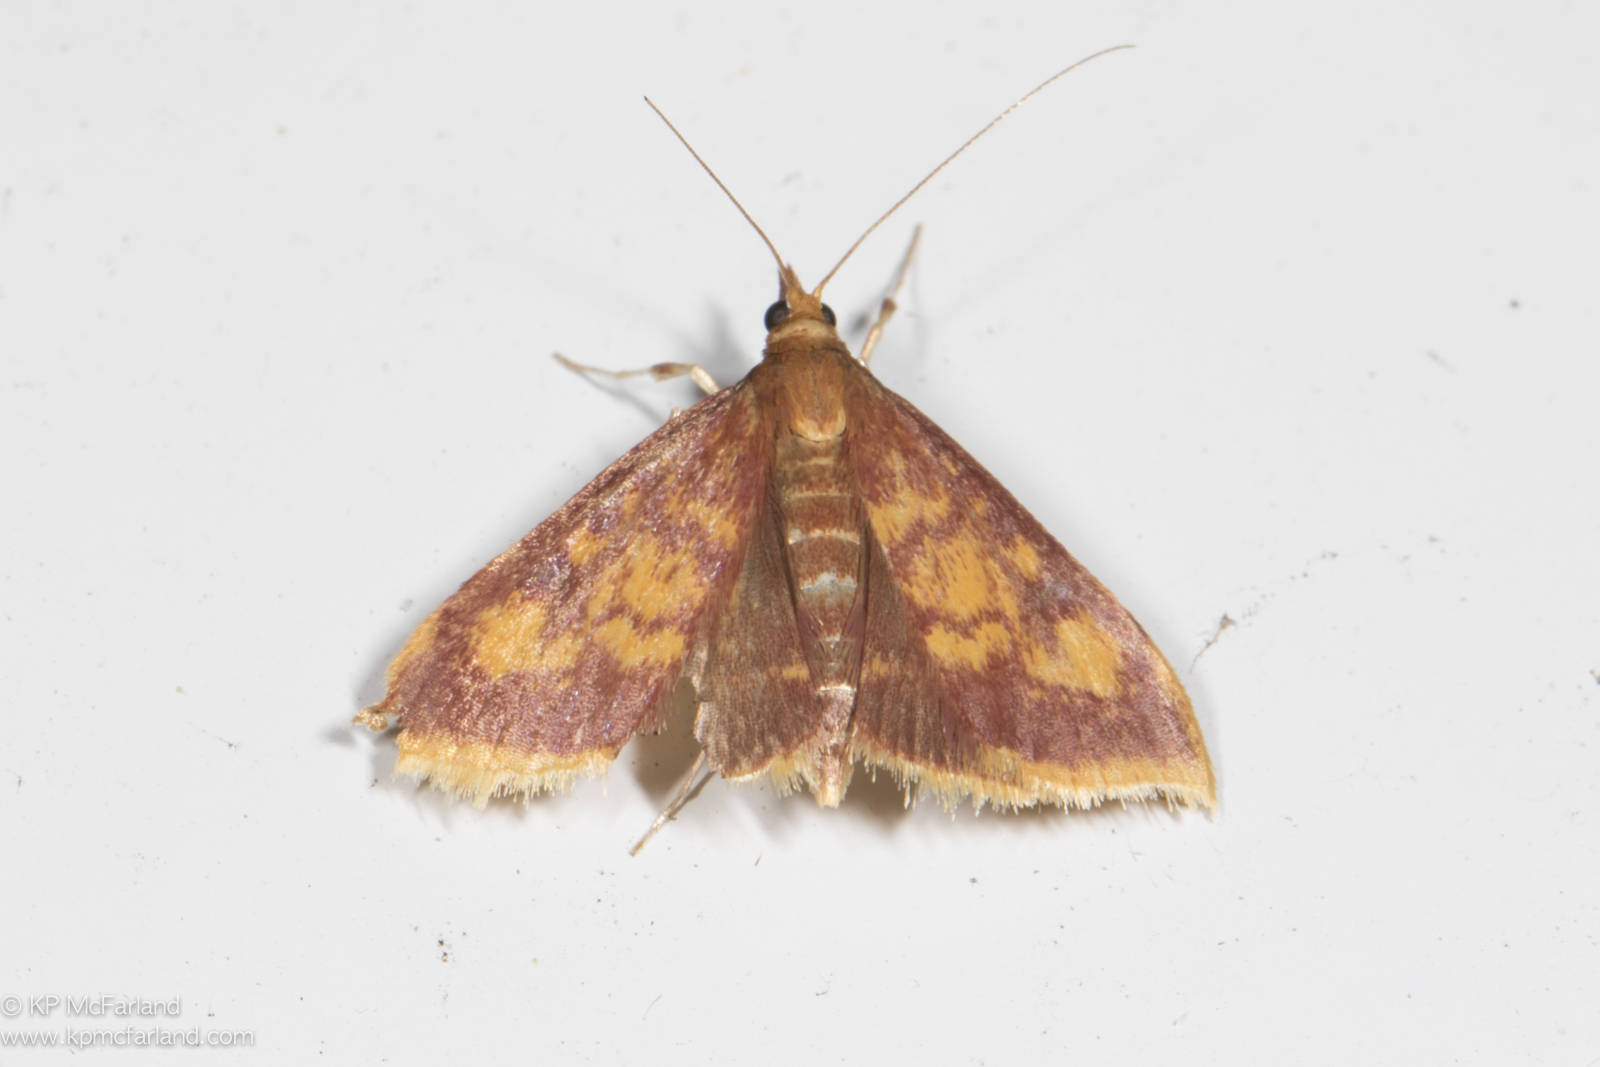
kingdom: Animalia
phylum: Arthropoda
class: Insecta
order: Lepidoptera
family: Crambidae
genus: Pyrausta
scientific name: Pyrausta acrionalis
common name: Mint-loving pyrausta moth
